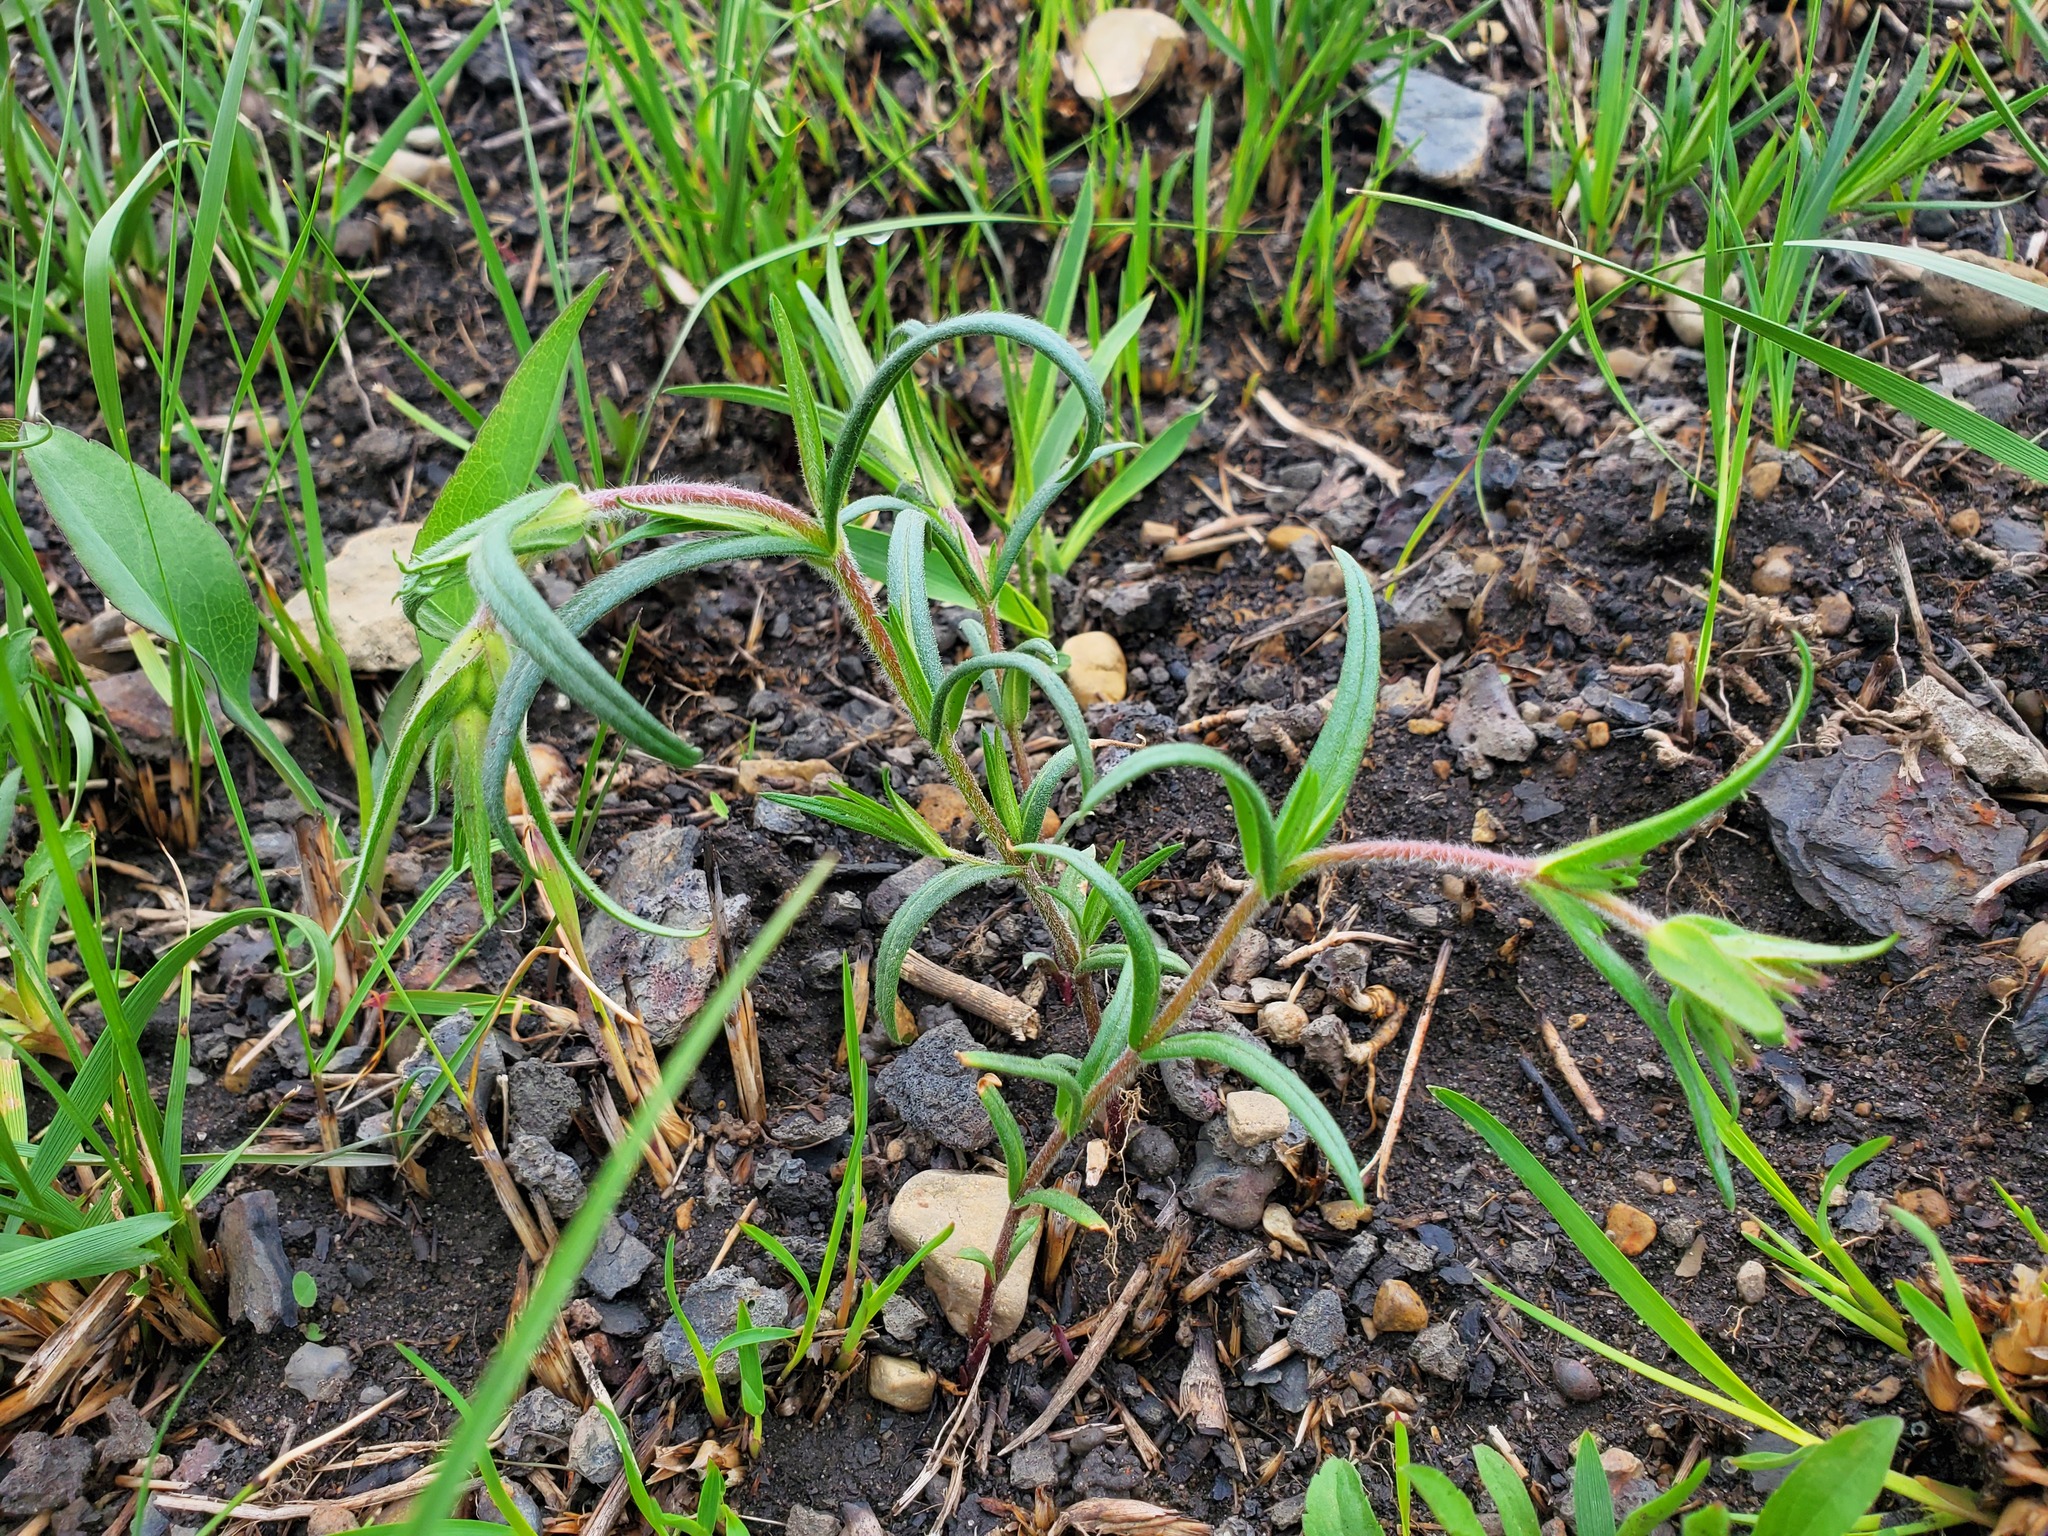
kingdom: Plantae
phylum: Tracheophyta
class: Magnoliopsida
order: Ericales
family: Polemoniaceae
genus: Phlox
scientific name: Phlox pilosa
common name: Prairie phlox
